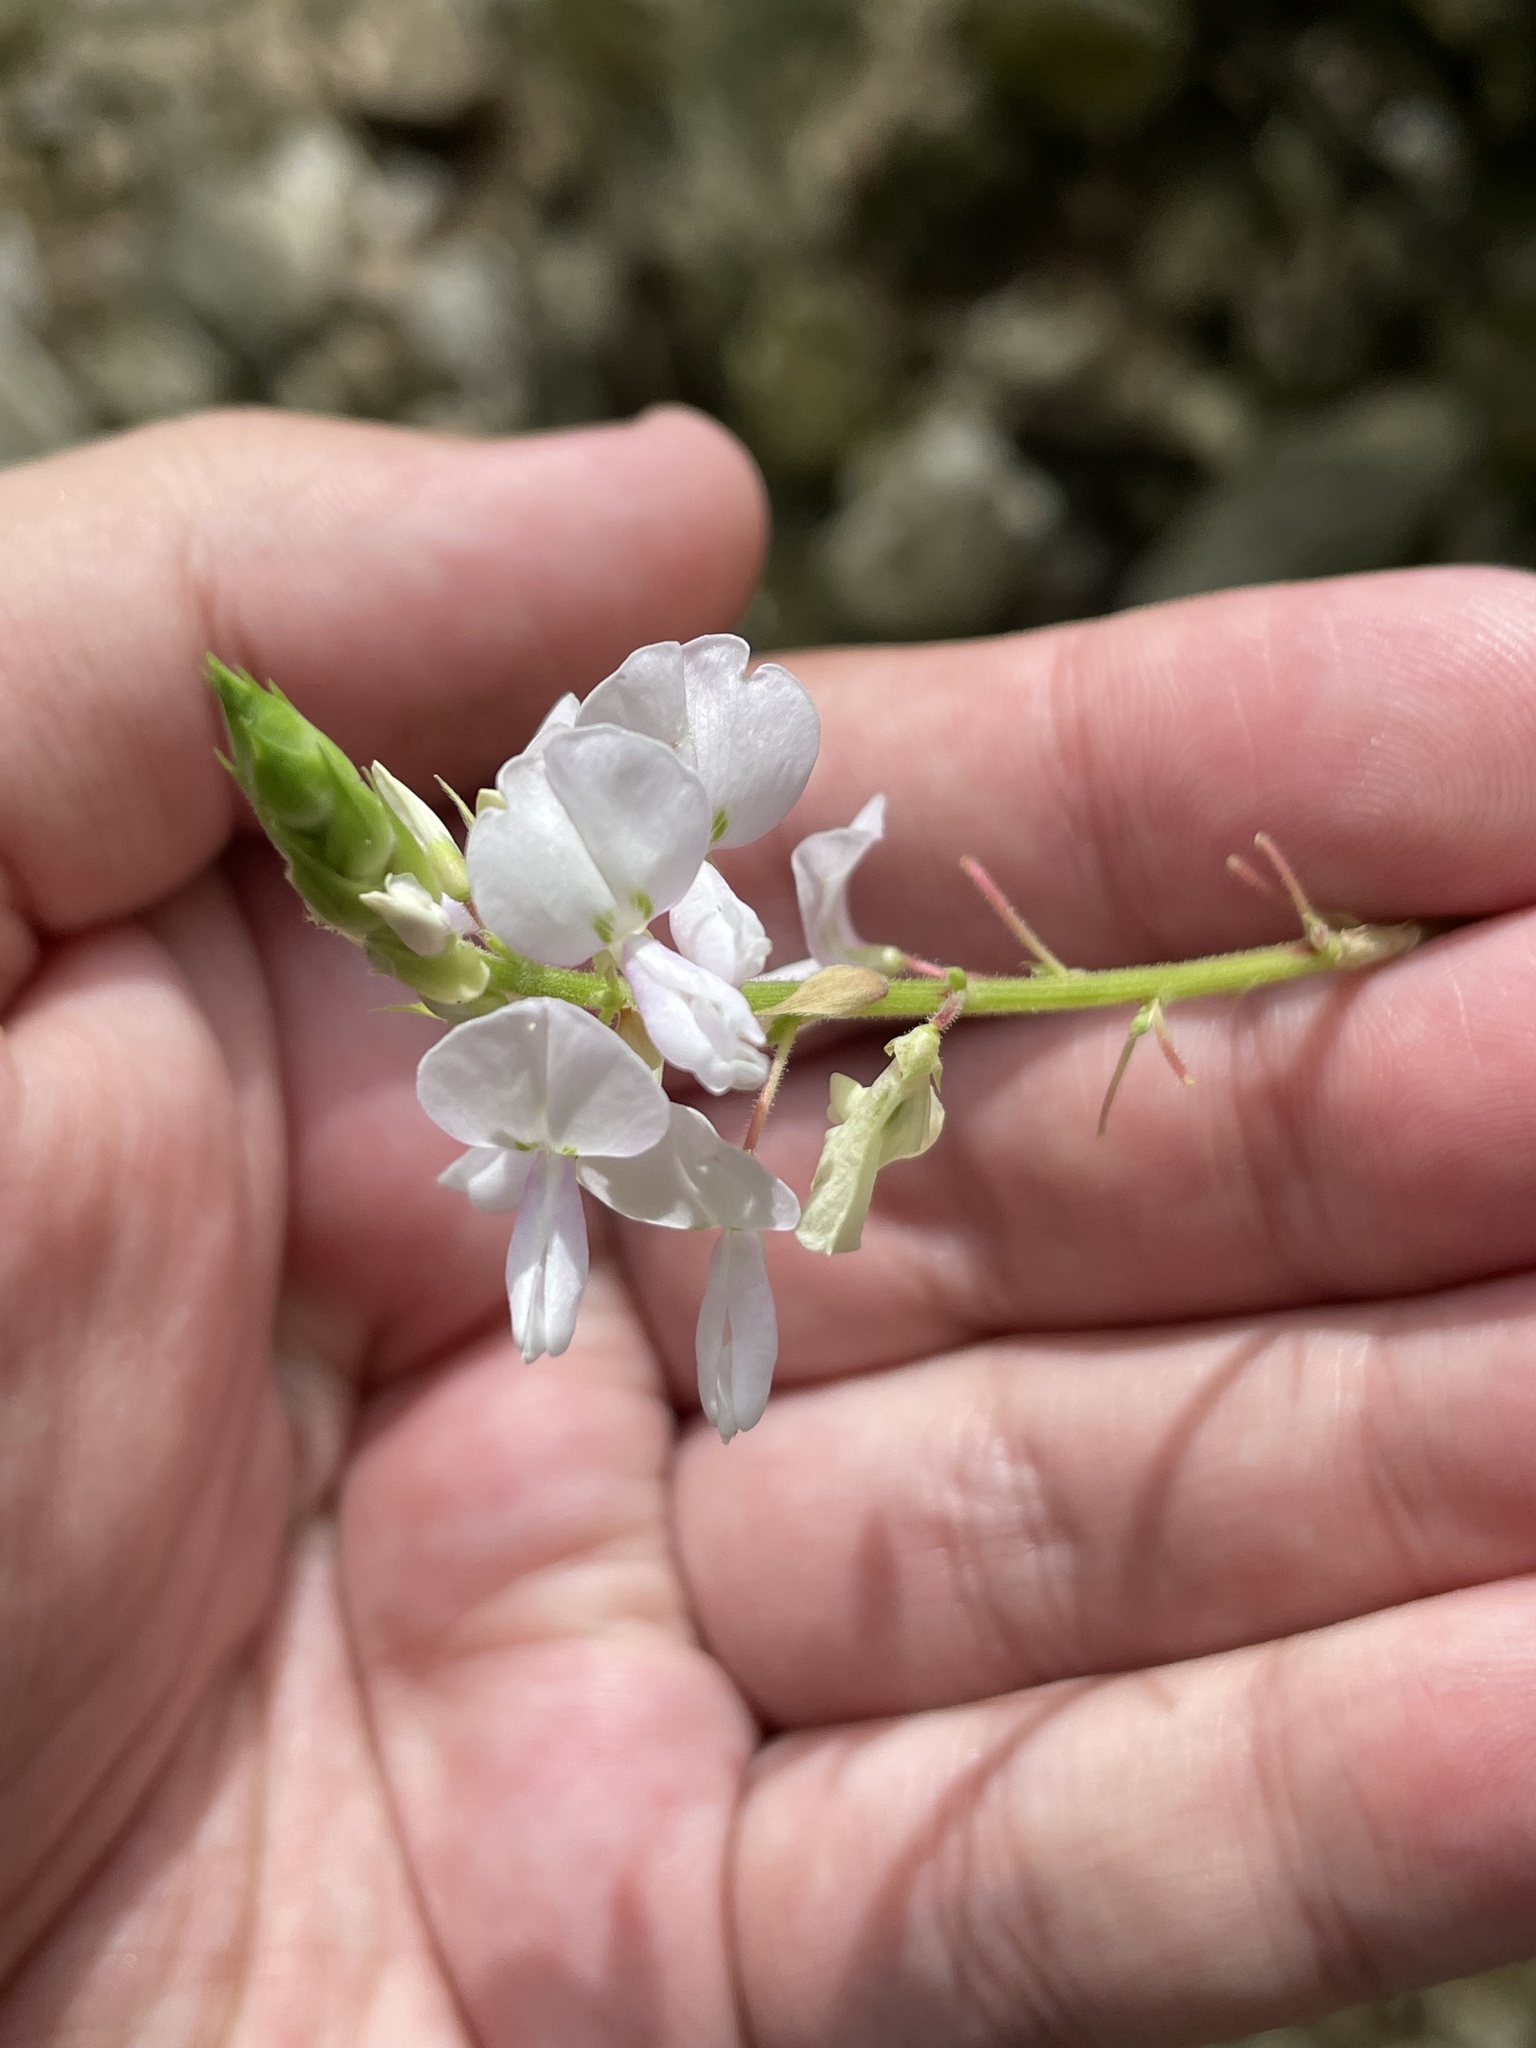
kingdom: Plantae
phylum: Tracheophyta
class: Magnoliopsida
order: Fabales
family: Fabaceae
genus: Desmodium
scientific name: Desmodium lindheimeri
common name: Lindheimer's tick-trefoil
